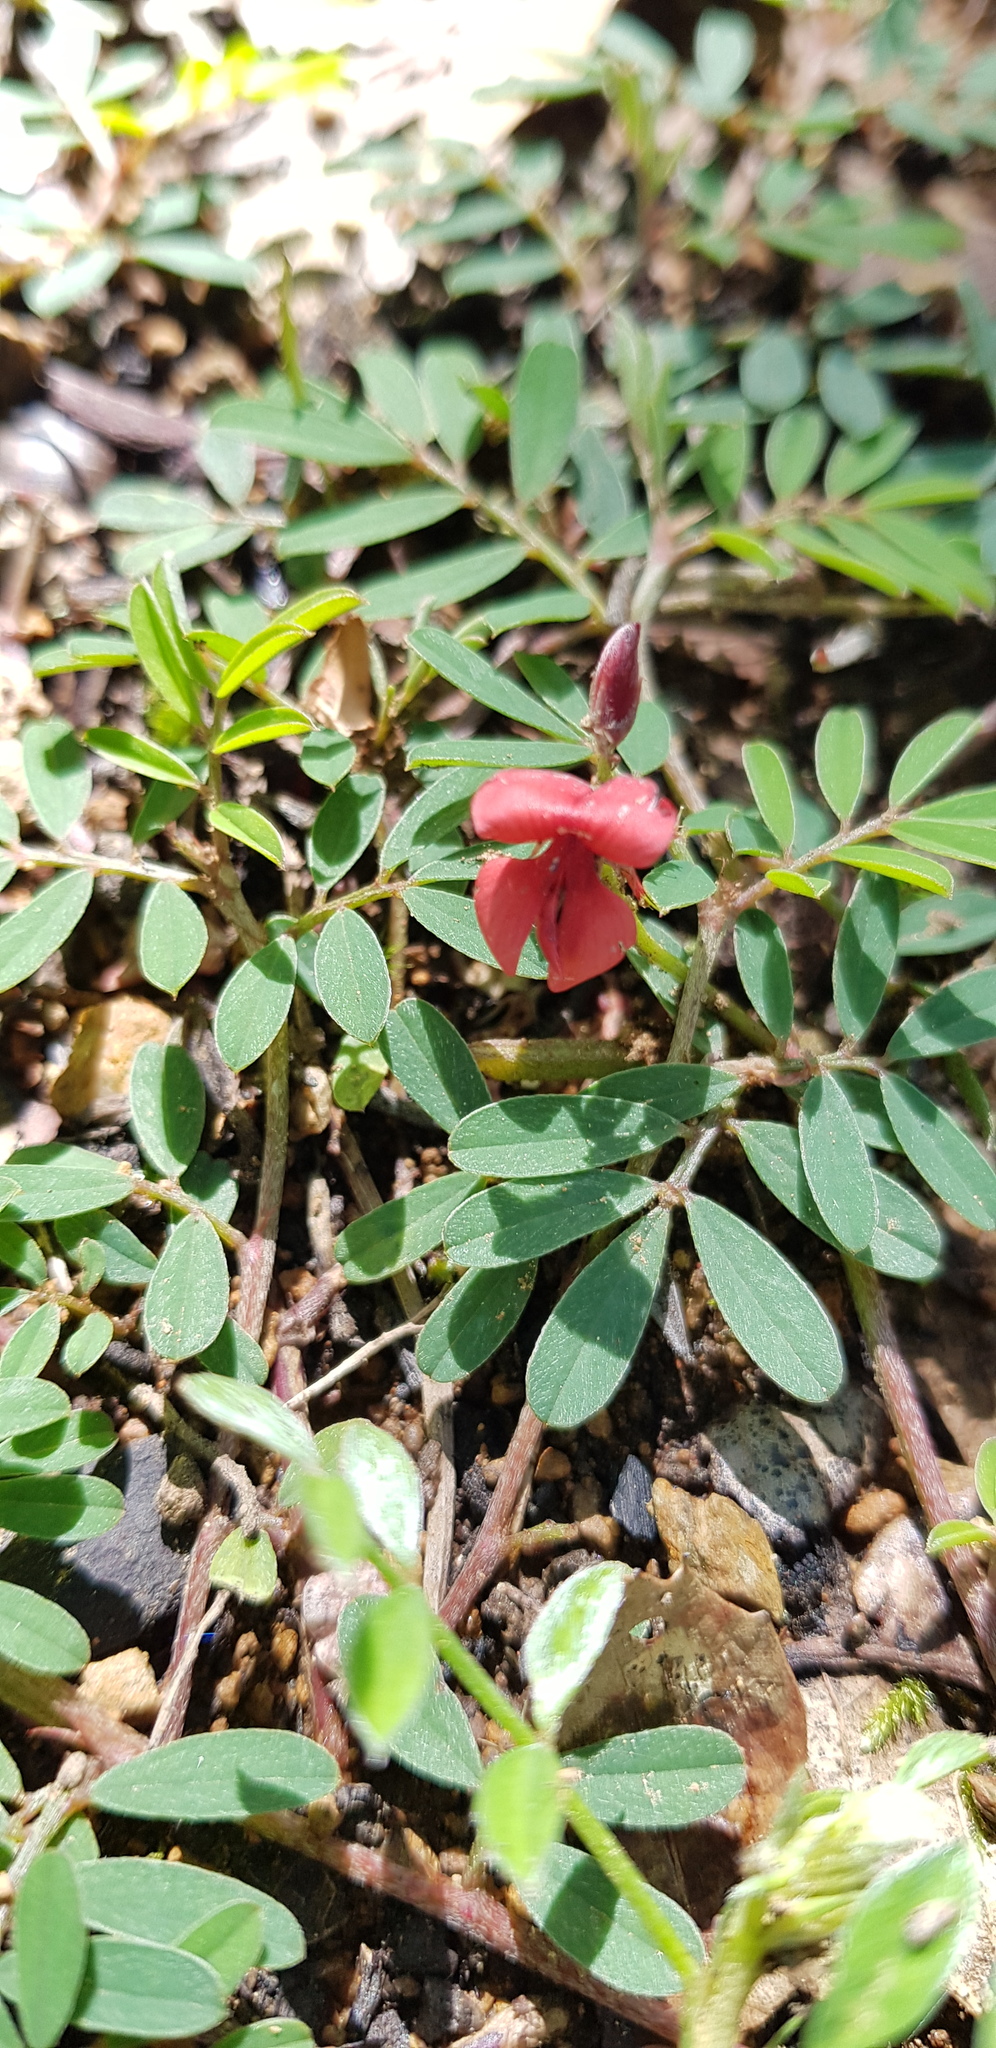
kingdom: Plantae
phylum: Tracheophyta
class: Magnoliopsida
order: Fabales
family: Fabaceae
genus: Indigofera
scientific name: Indigofera miniata
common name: Coast indigo
